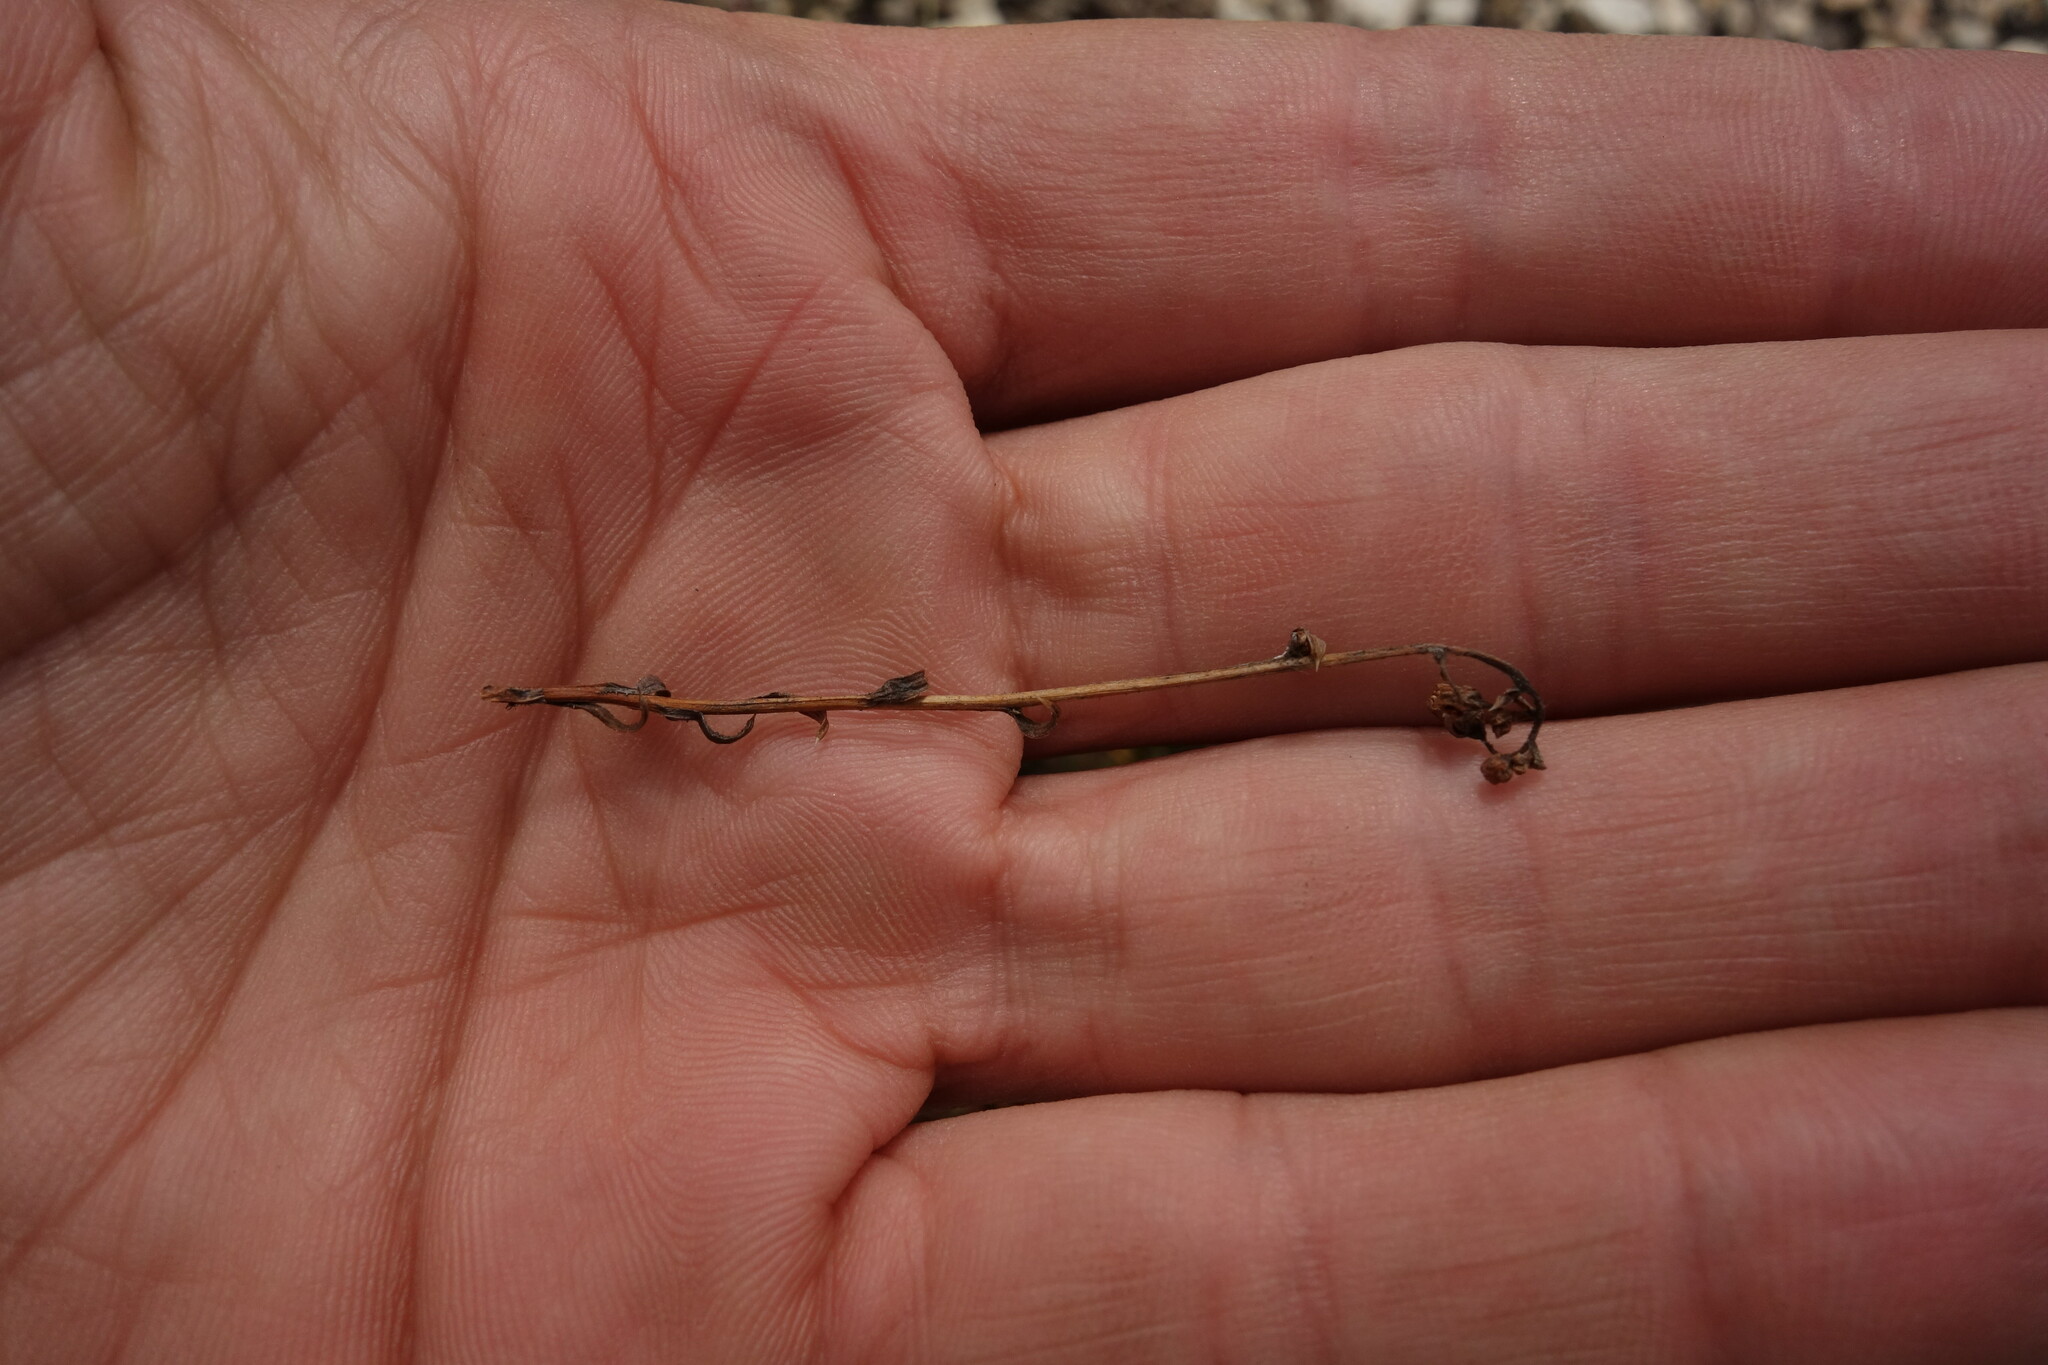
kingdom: Plantae
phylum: Tracheophyta
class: Magnoliopsida
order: Saxifragales
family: Saxifragaceae
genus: Saxifraga
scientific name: Saxifraga
